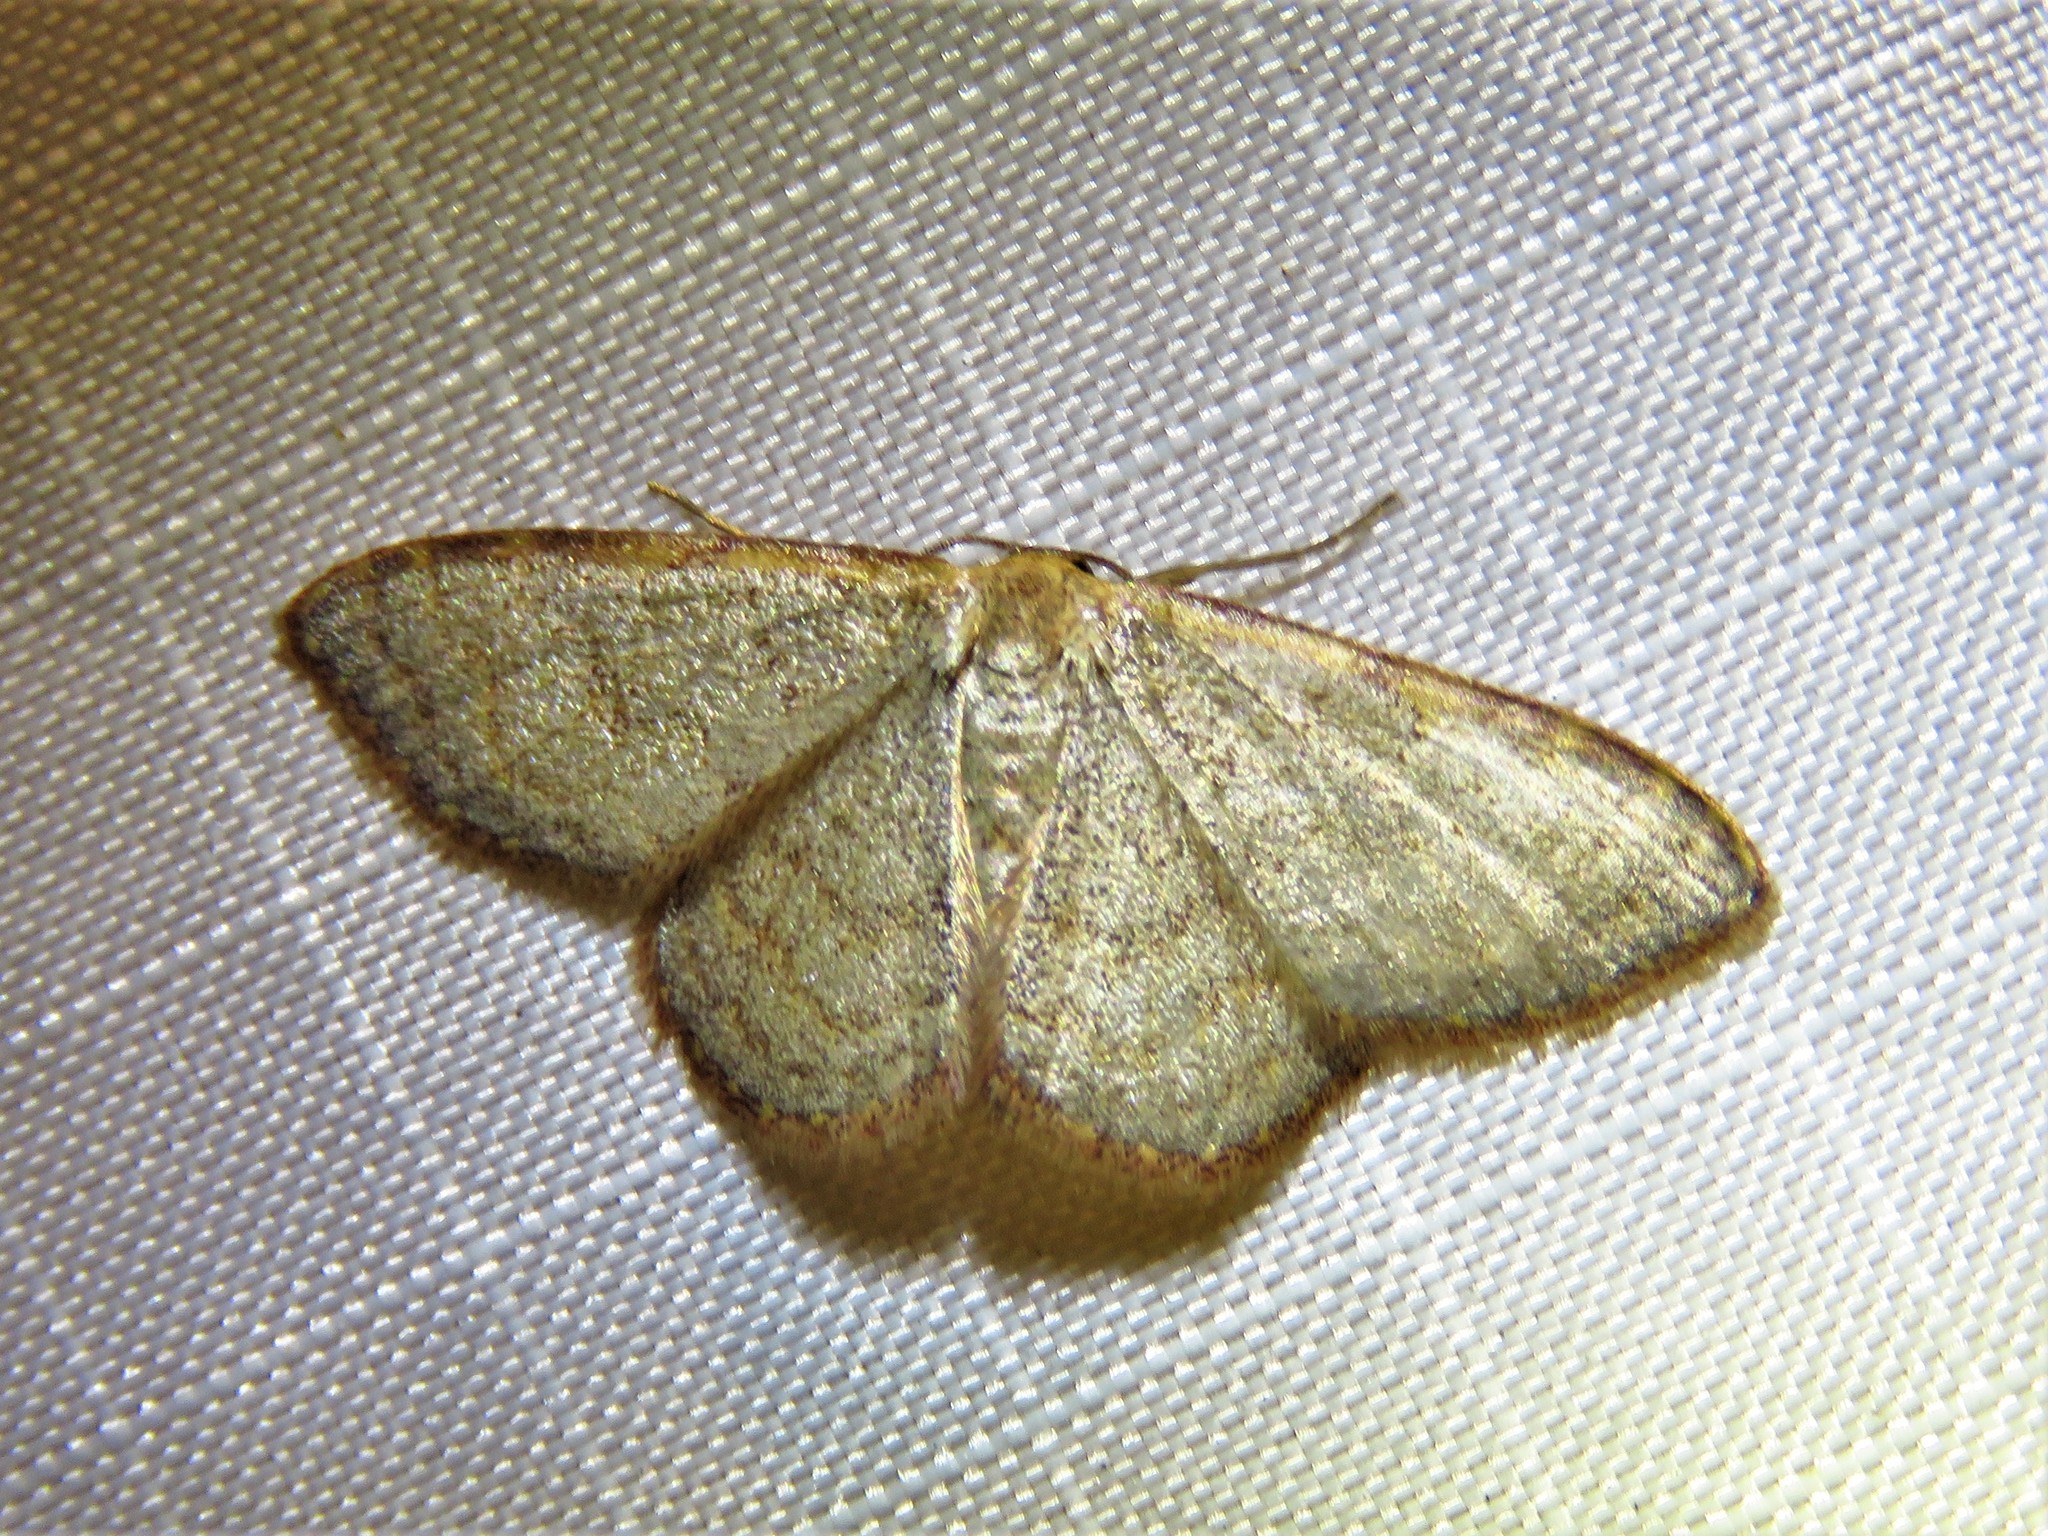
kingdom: Animalia
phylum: Arthropoda
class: Insecta
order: Lepidoptera
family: Geometridae
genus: Leptostales
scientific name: Leptostales pannaria
